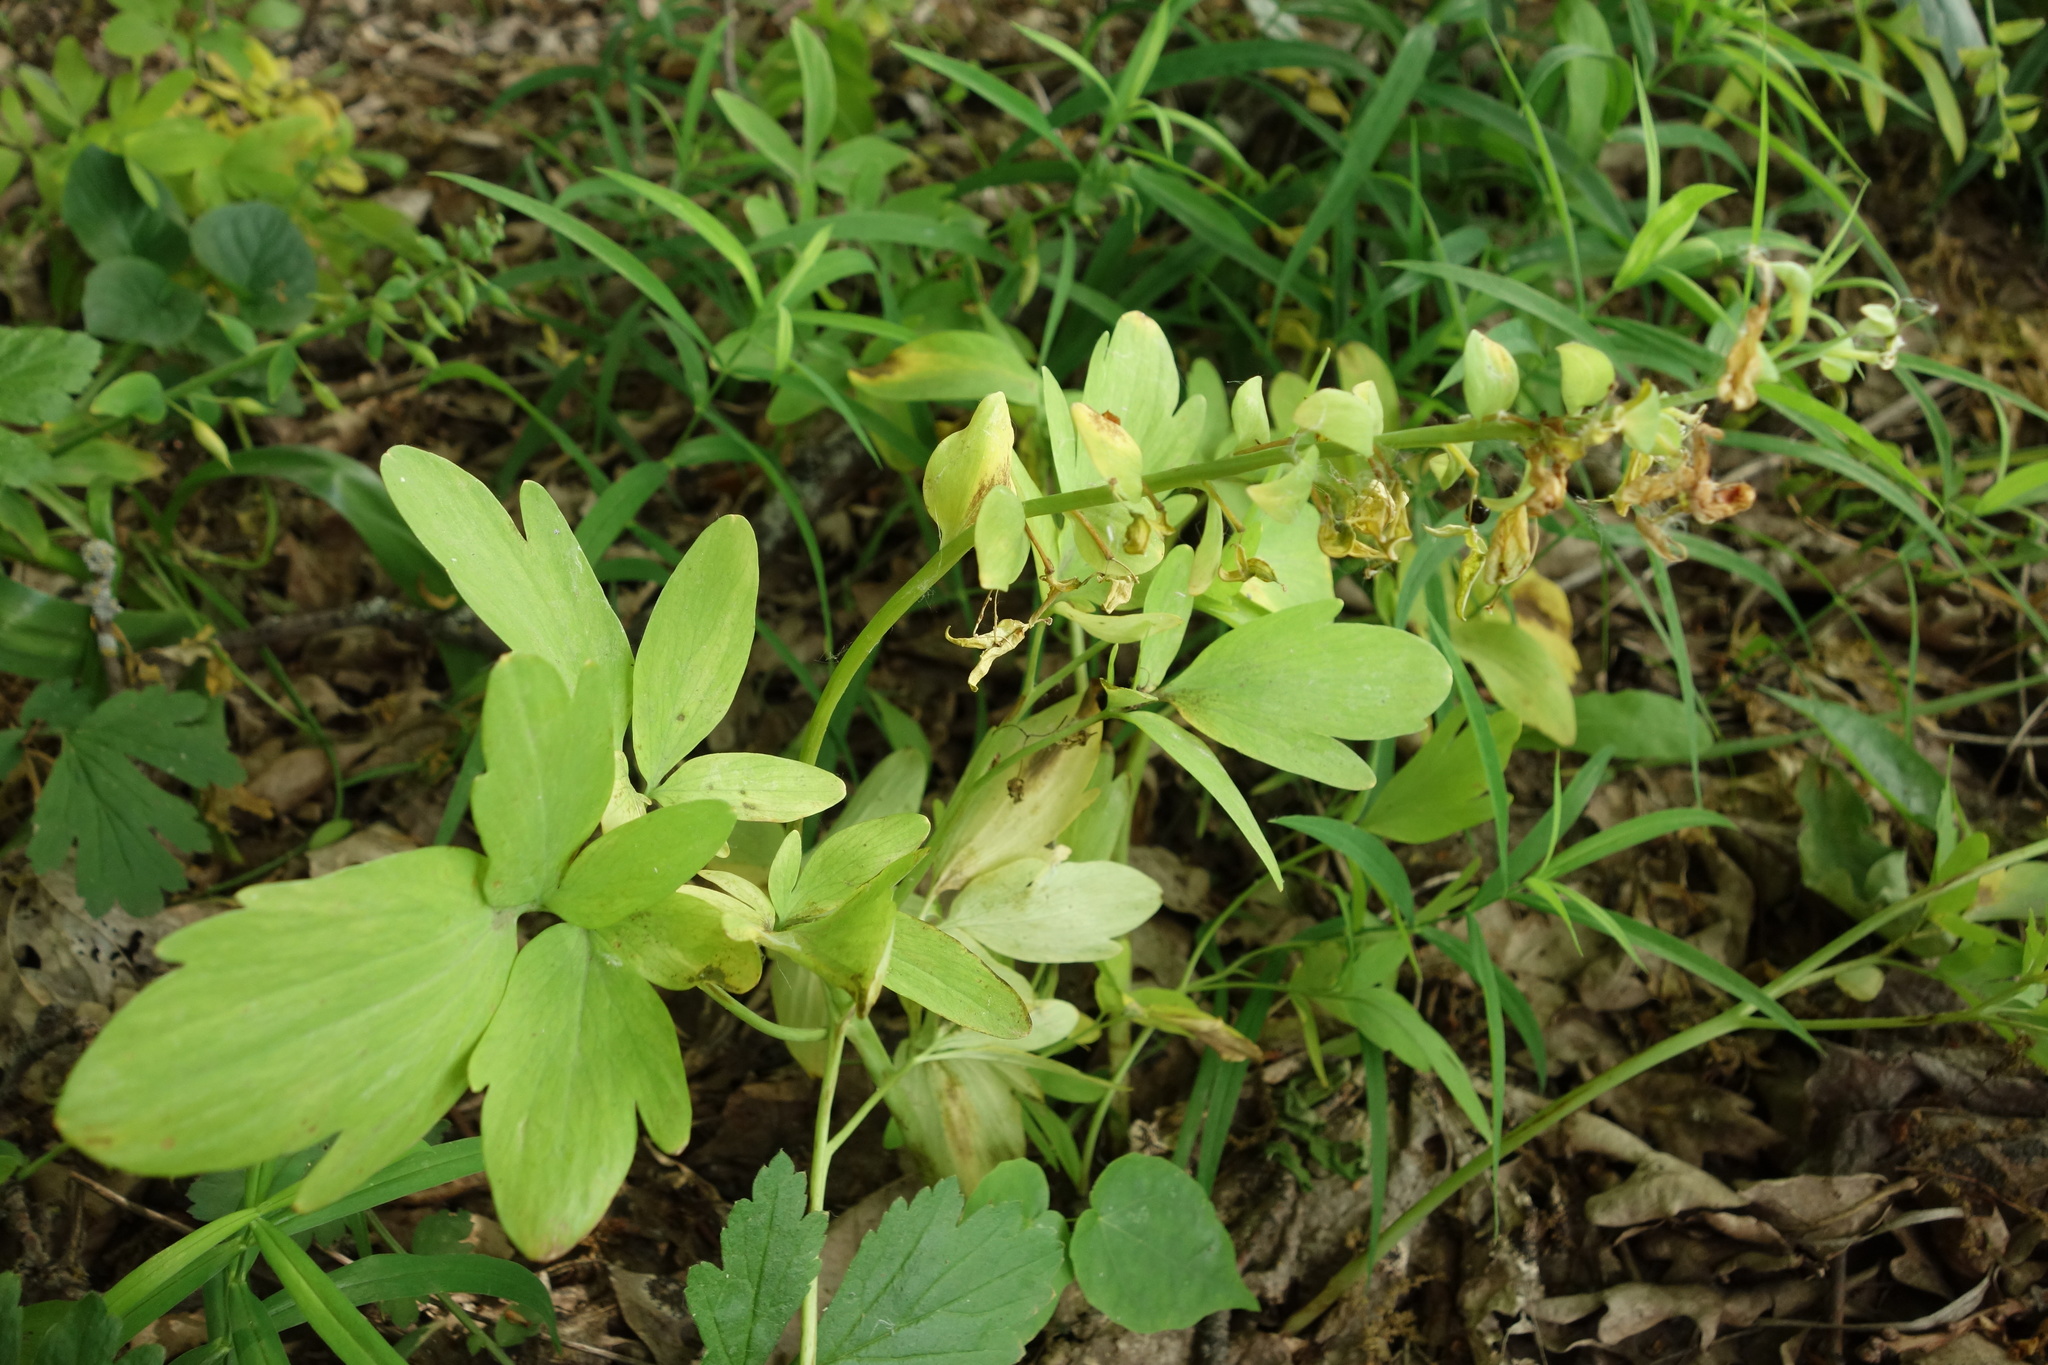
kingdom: Plantae
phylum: Tracheophyta
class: Magnoliopsida
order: Ranunculales
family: Papaveraceae
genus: Corydalis
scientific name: Corydalis cava
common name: Hollowroot
